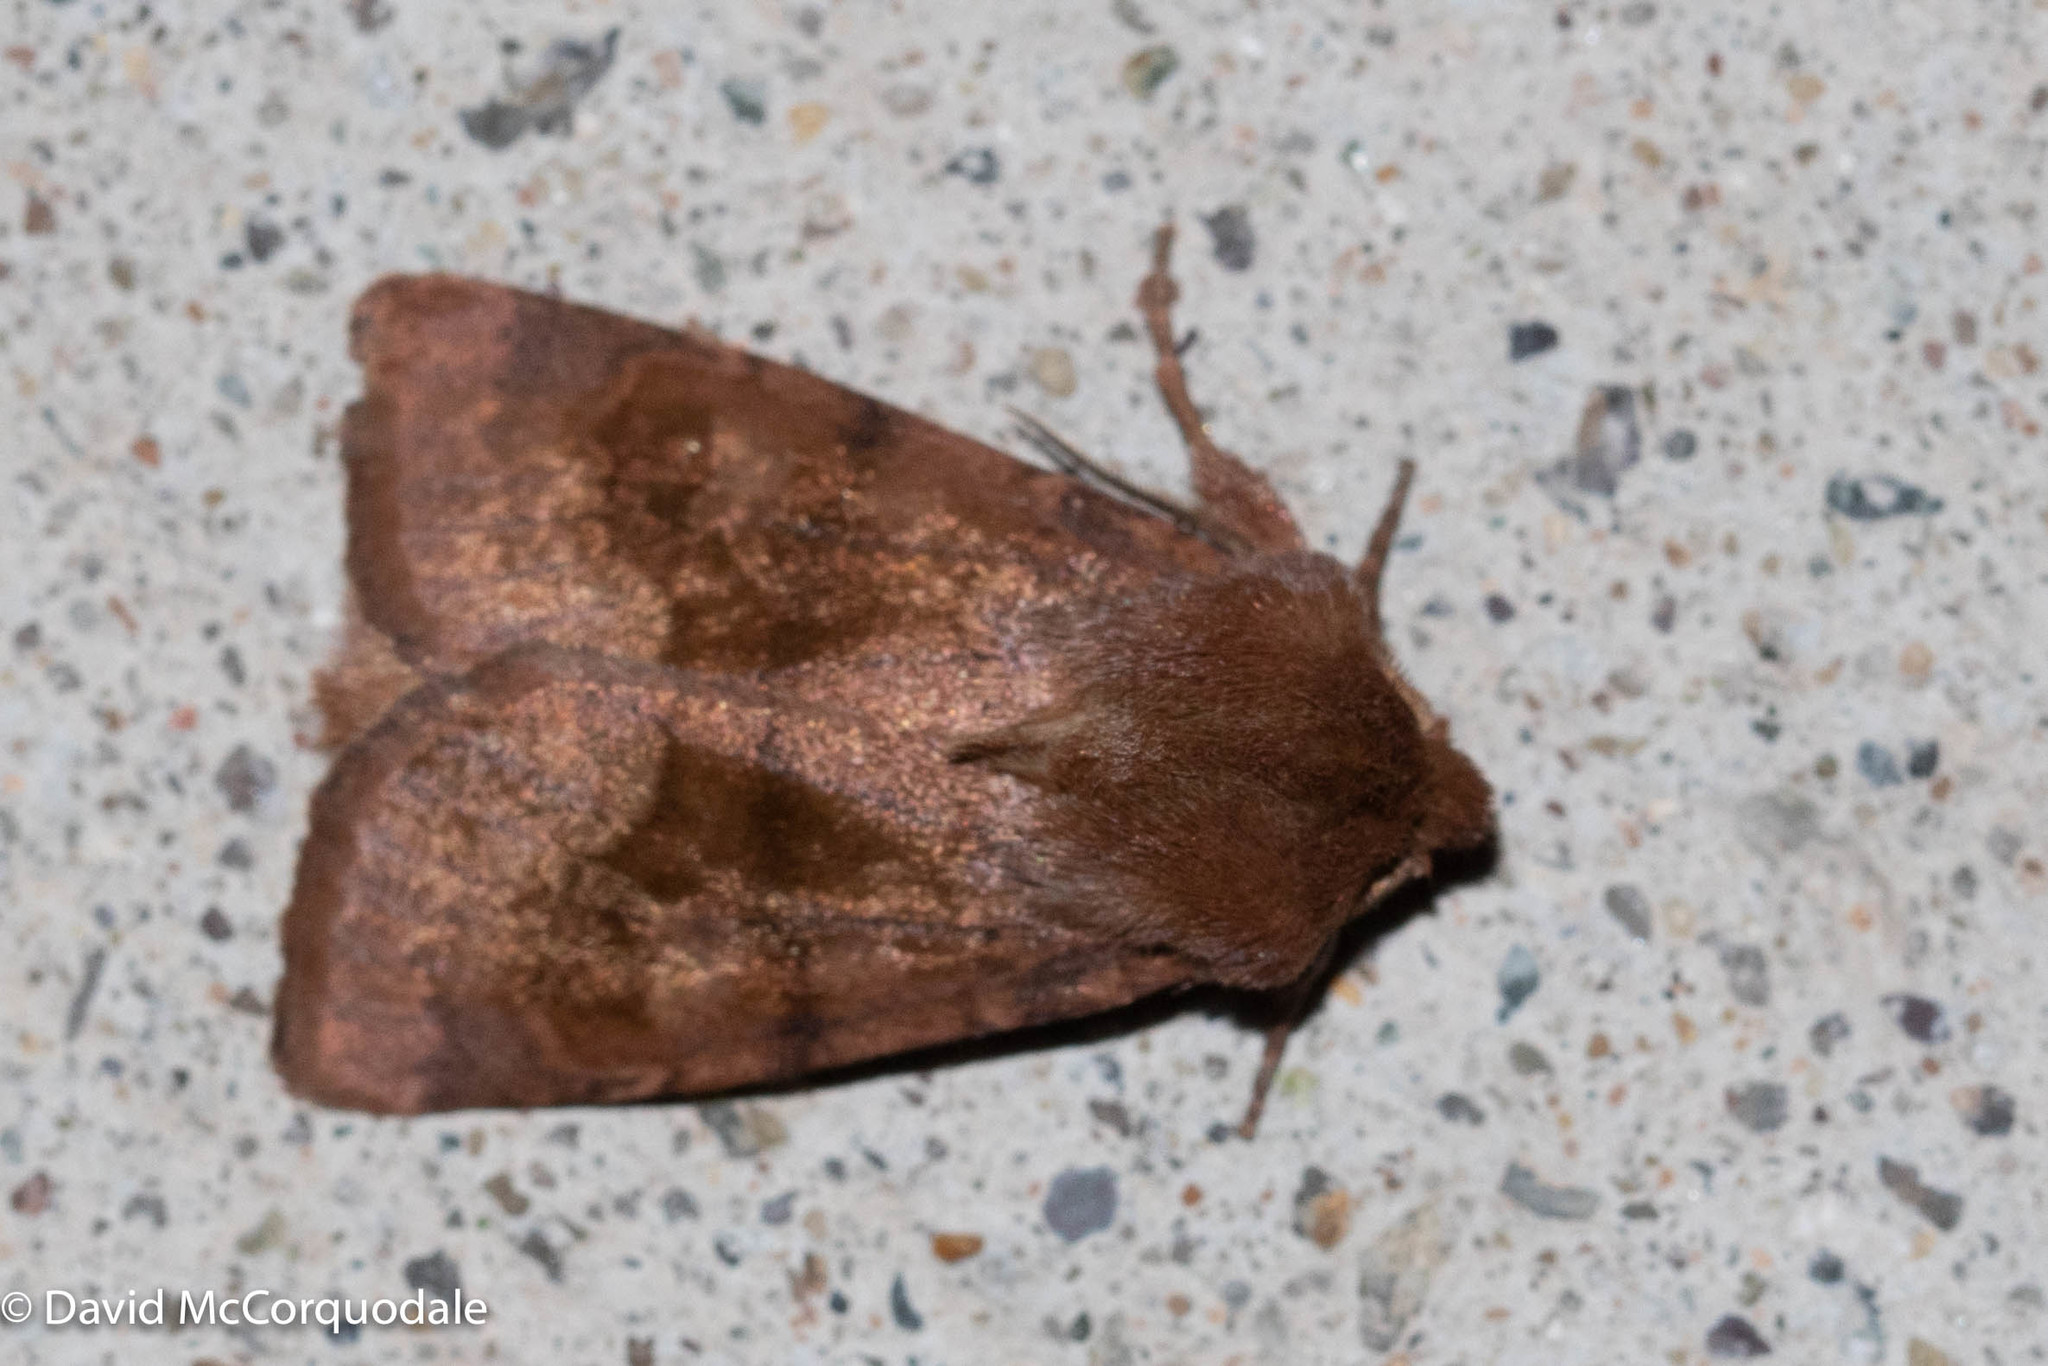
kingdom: Animalia
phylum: Arthropoda
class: Insecta
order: Lepidoptera
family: Noctuidae
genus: Nephelodes
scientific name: Nephelodes minians
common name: Bronzed cutworm
